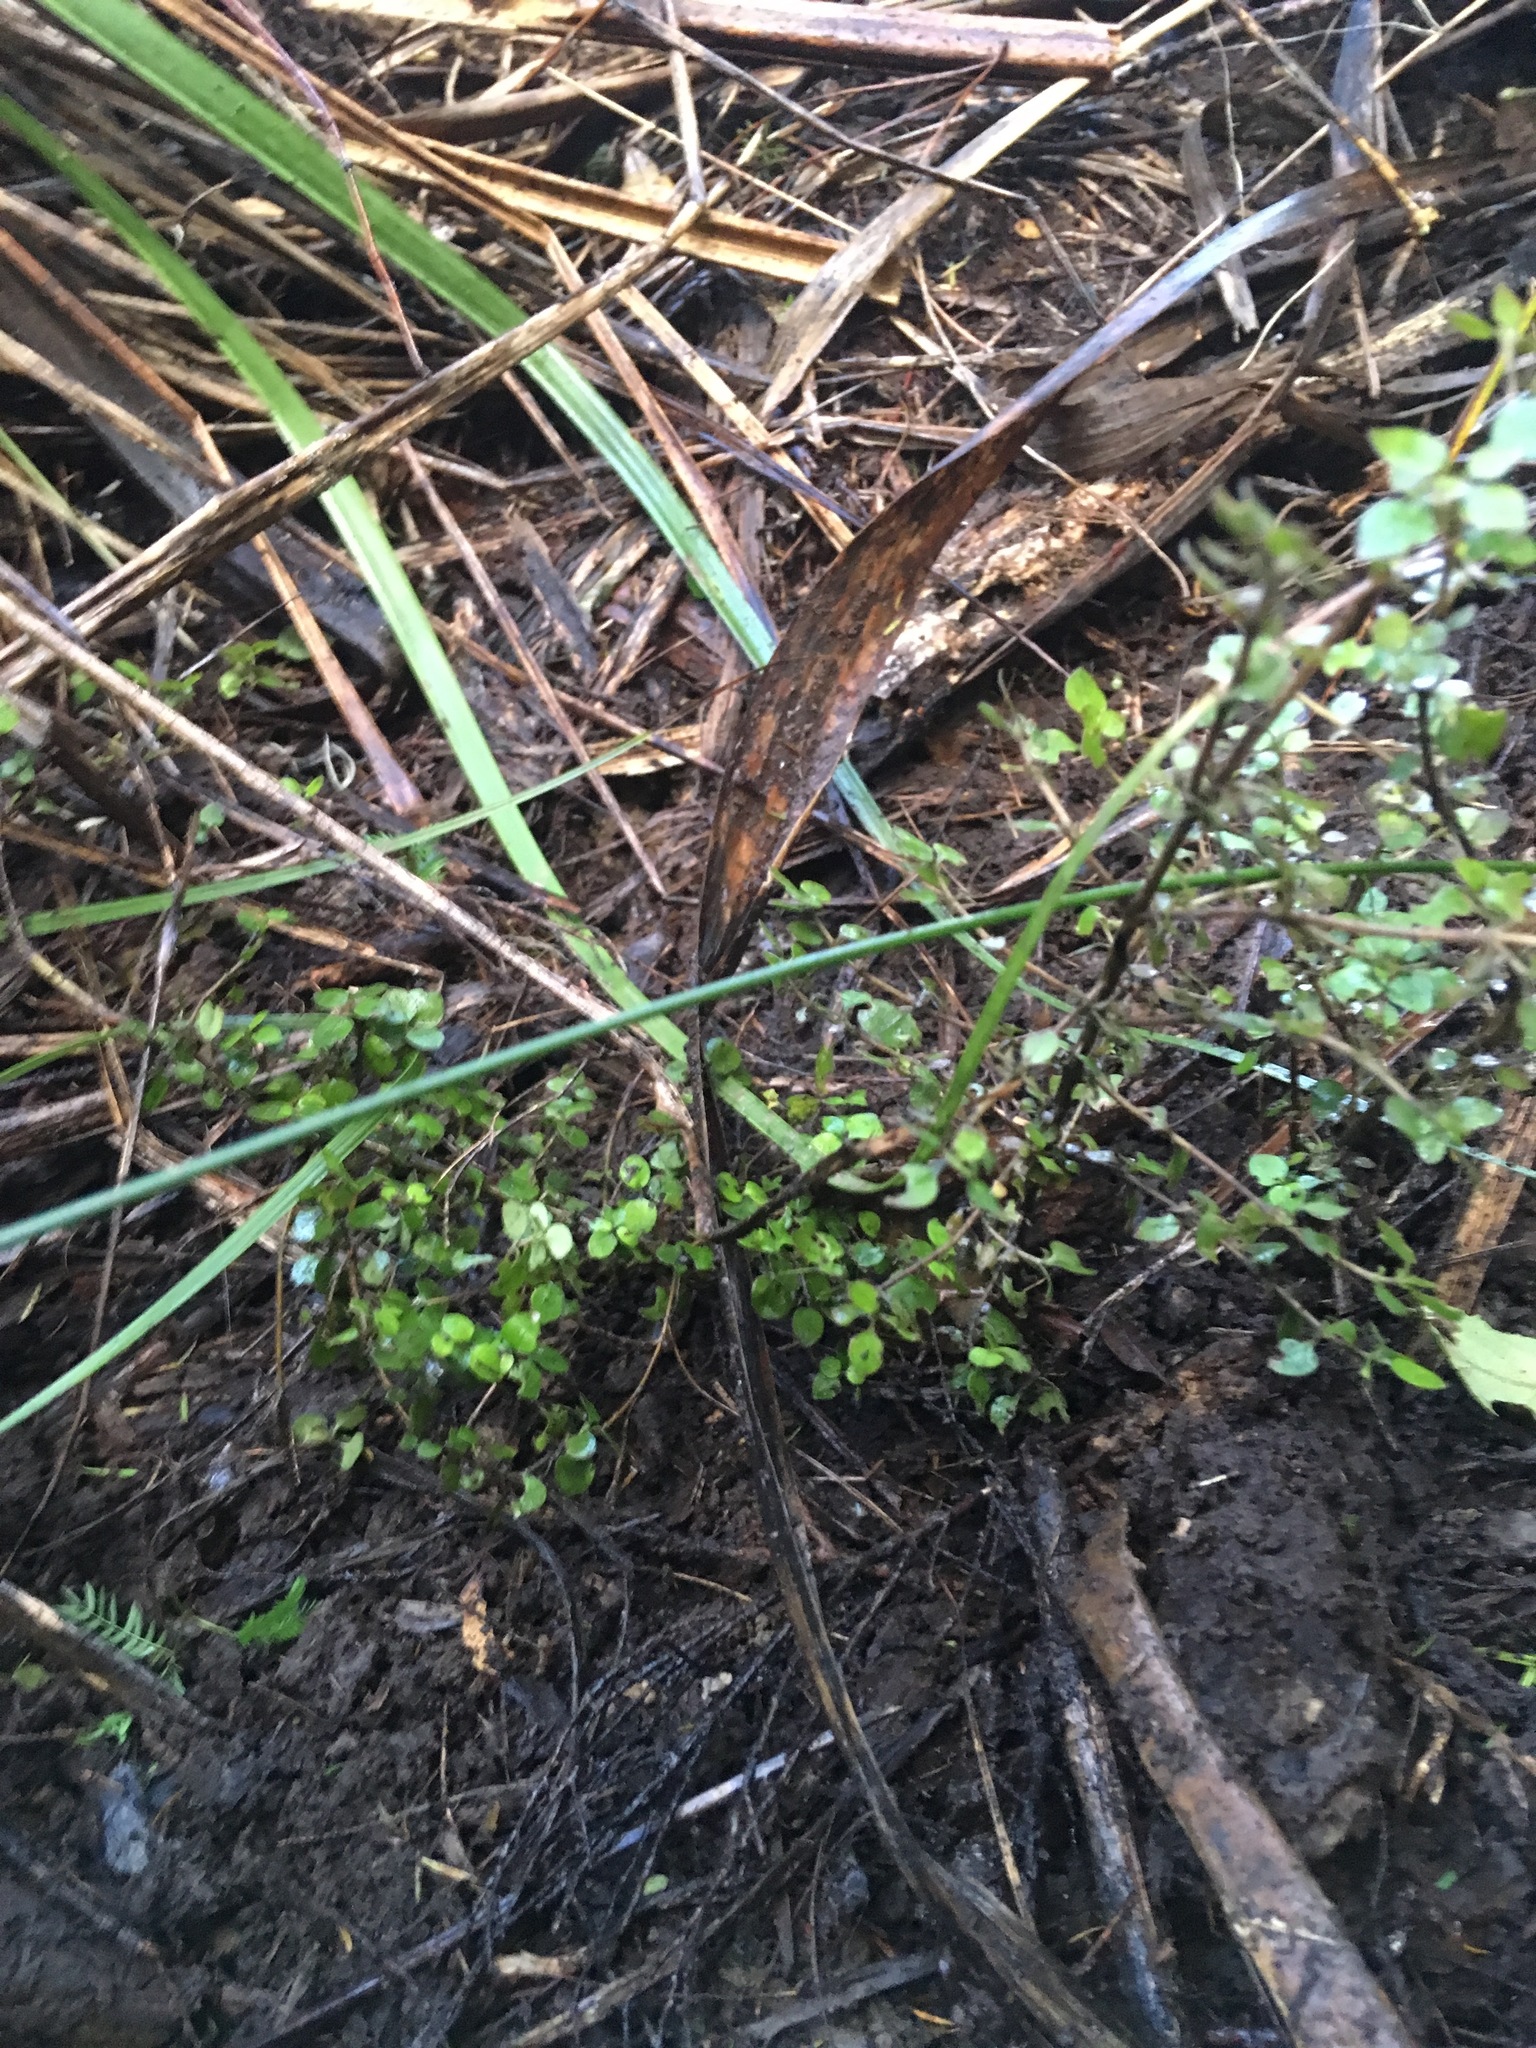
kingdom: Plantae
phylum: Tracheophyta
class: Magnoliopsida
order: Gentianales
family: Rubiaceae
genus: Coprosma
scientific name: Coprosma rhamnoides
